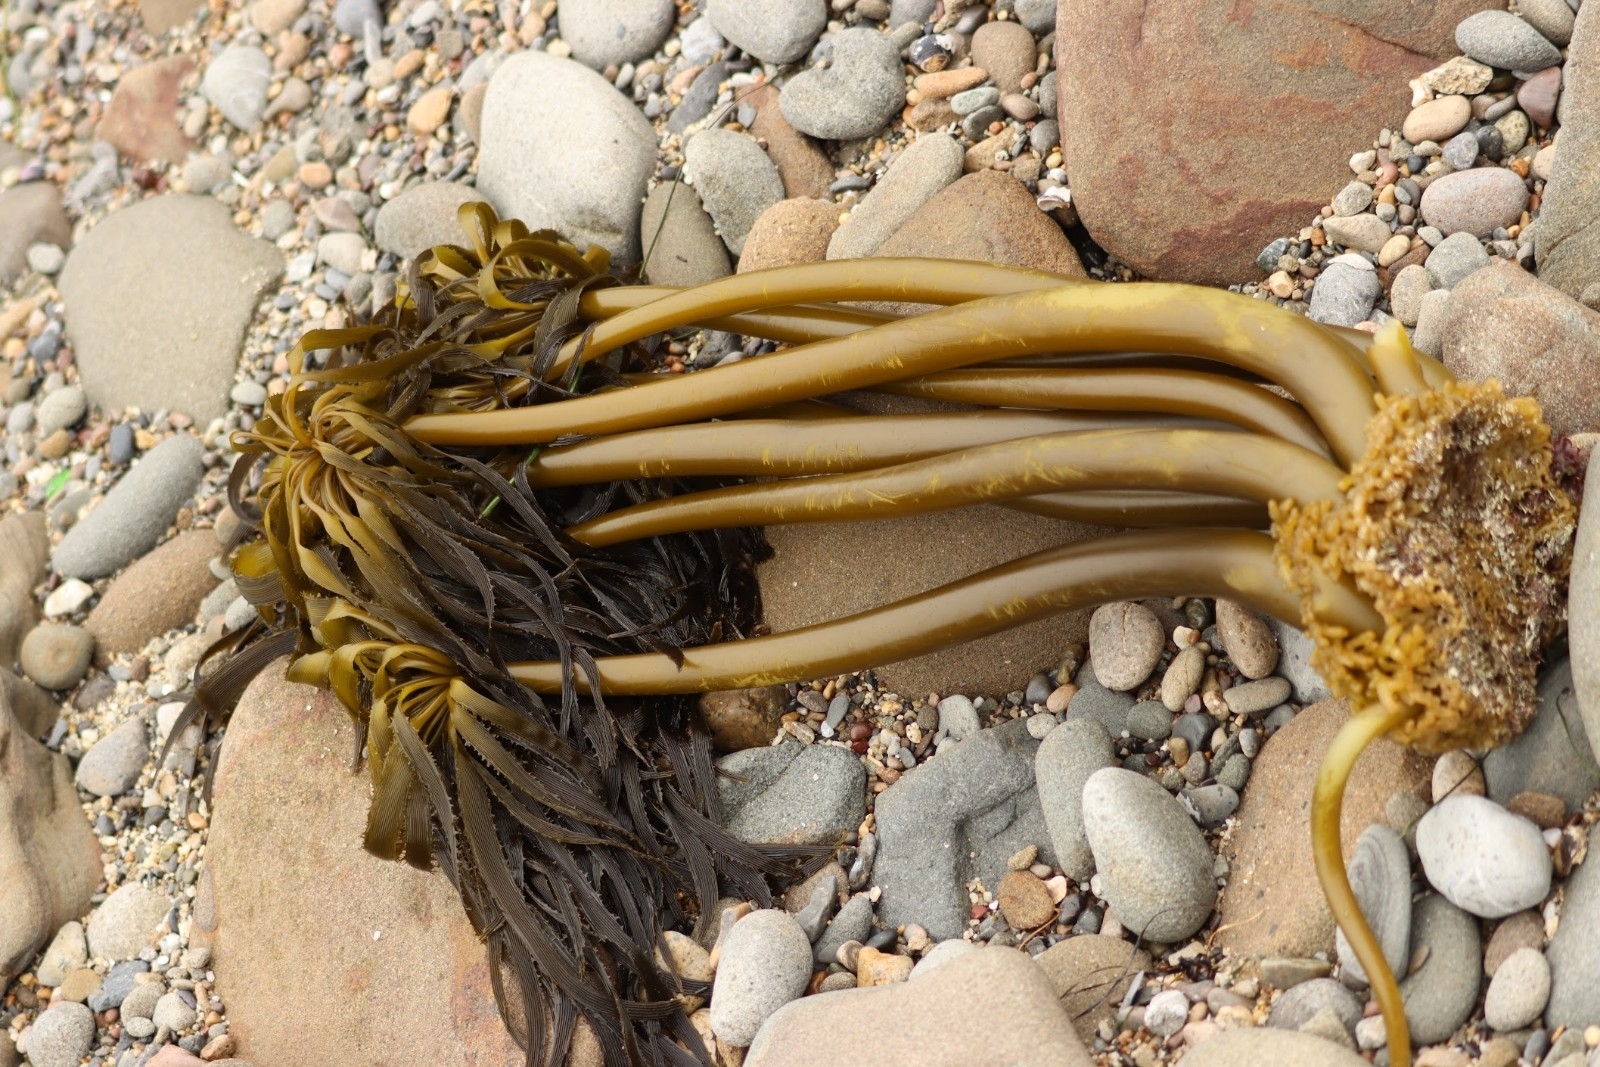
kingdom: Chromista
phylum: Ochrophyta
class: Phaeophyceae
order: Laminariales
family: Laminariaceae
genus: Postelsia
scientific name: Postelsia palmiformis
